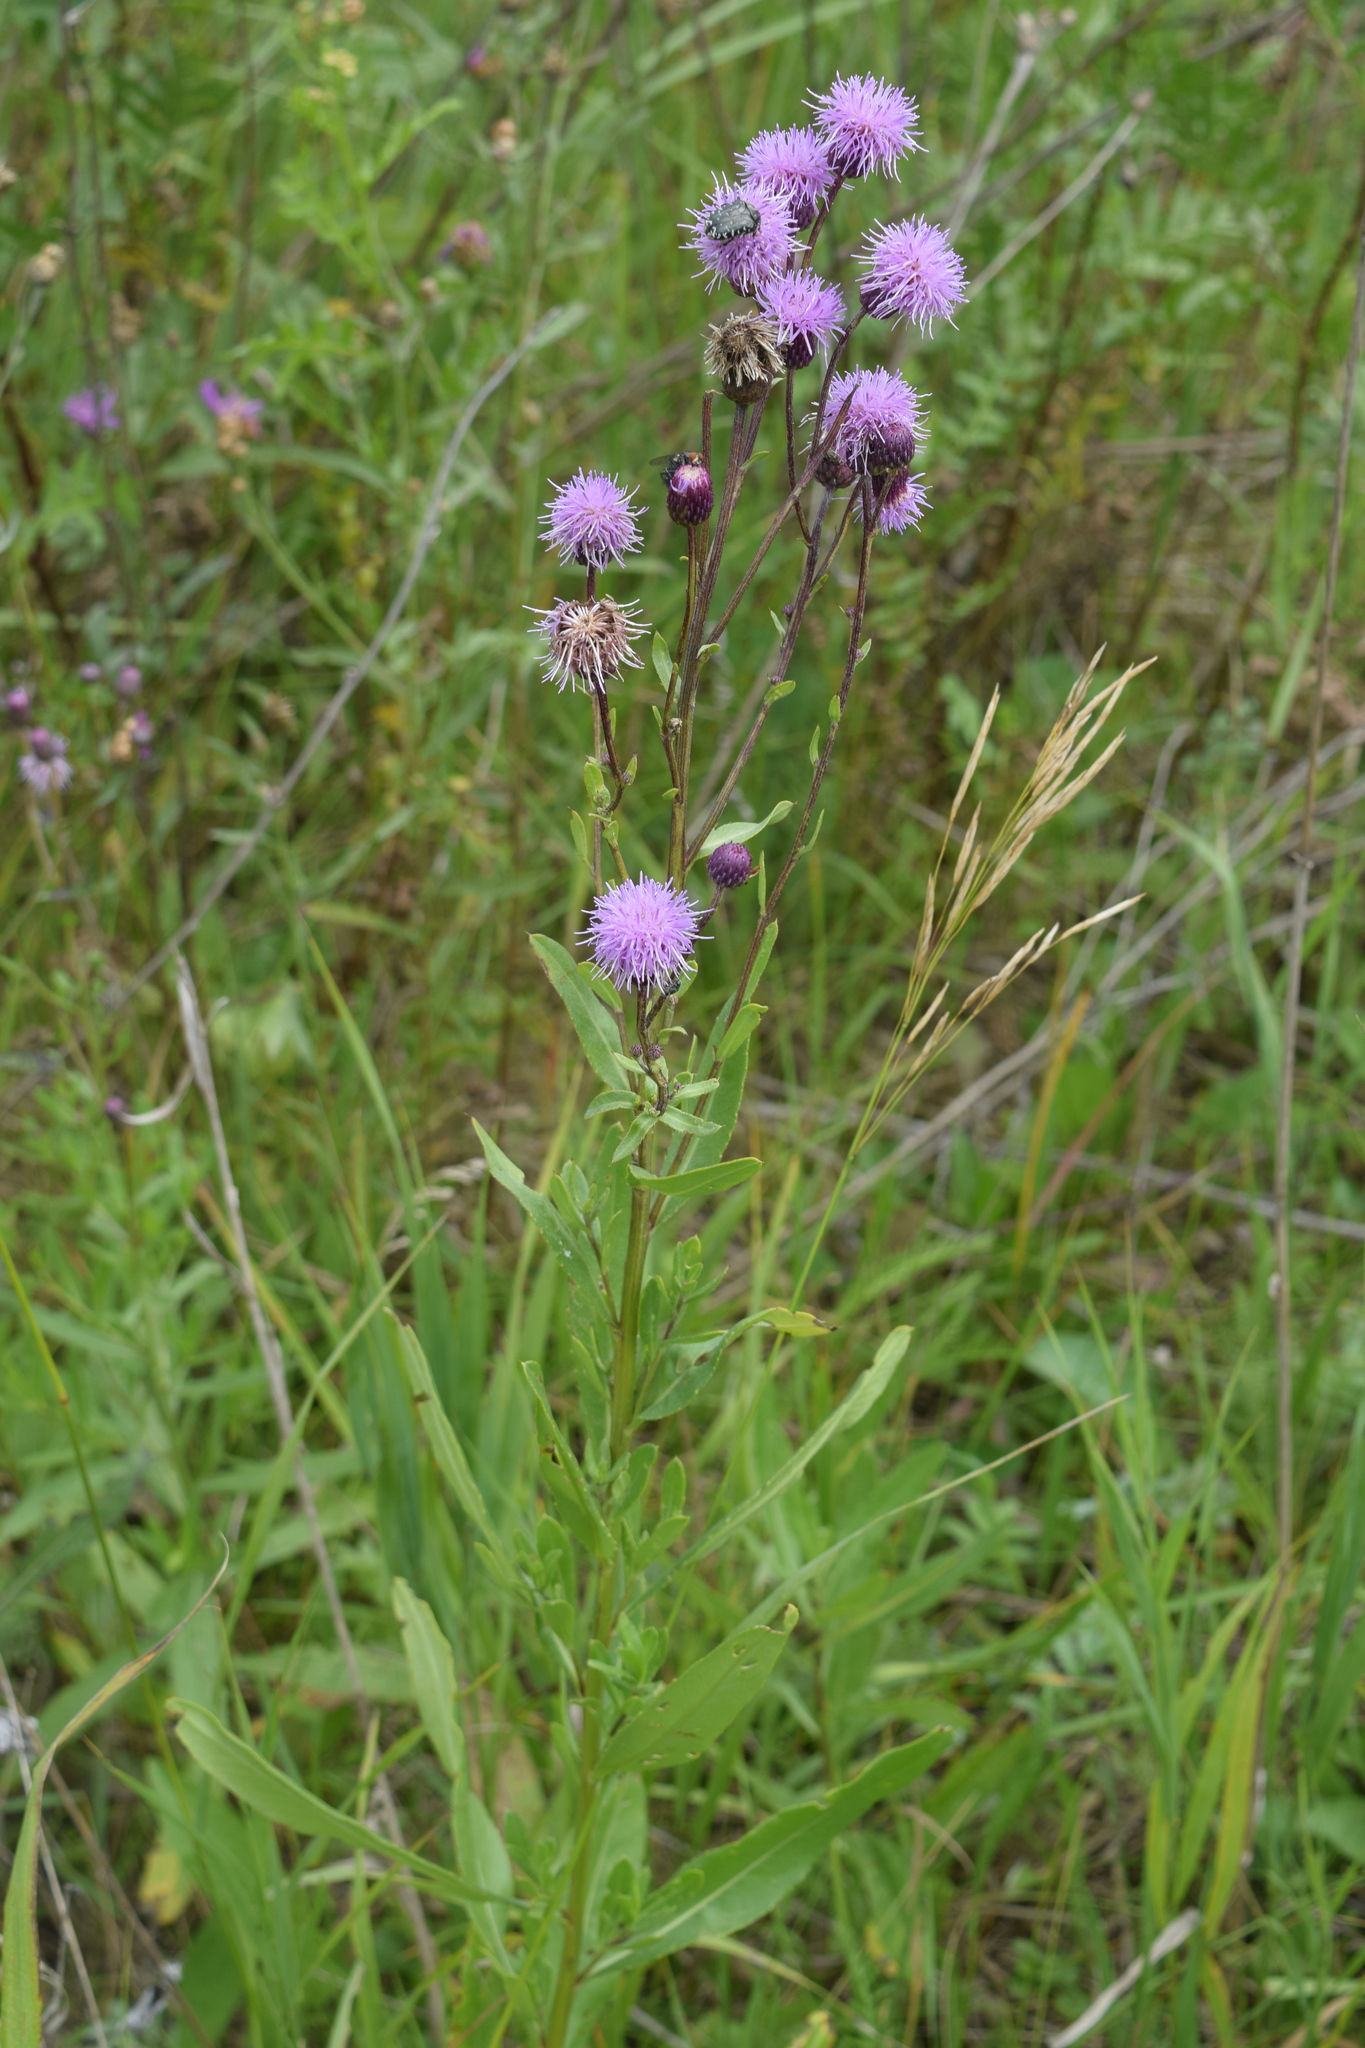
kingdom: Plantae
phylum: Tracheophyta
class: Magnoliopsida
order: Asterales
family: Asteraceae
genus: Cirsium
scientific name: Cirsium arvense
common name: Creeping thistle
